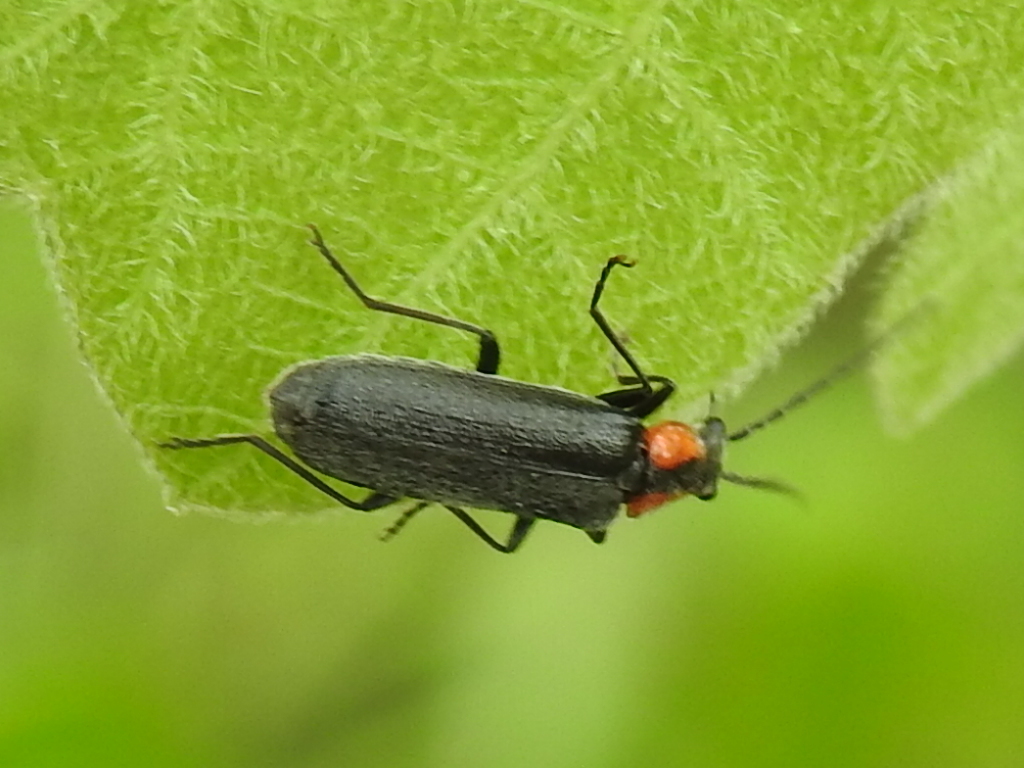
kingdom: Animalia
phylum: Arthropoda
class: Insecta
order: Coleoptera
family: Cantharidae
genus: Rhagonycha
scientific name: Rhagonycha lineola
